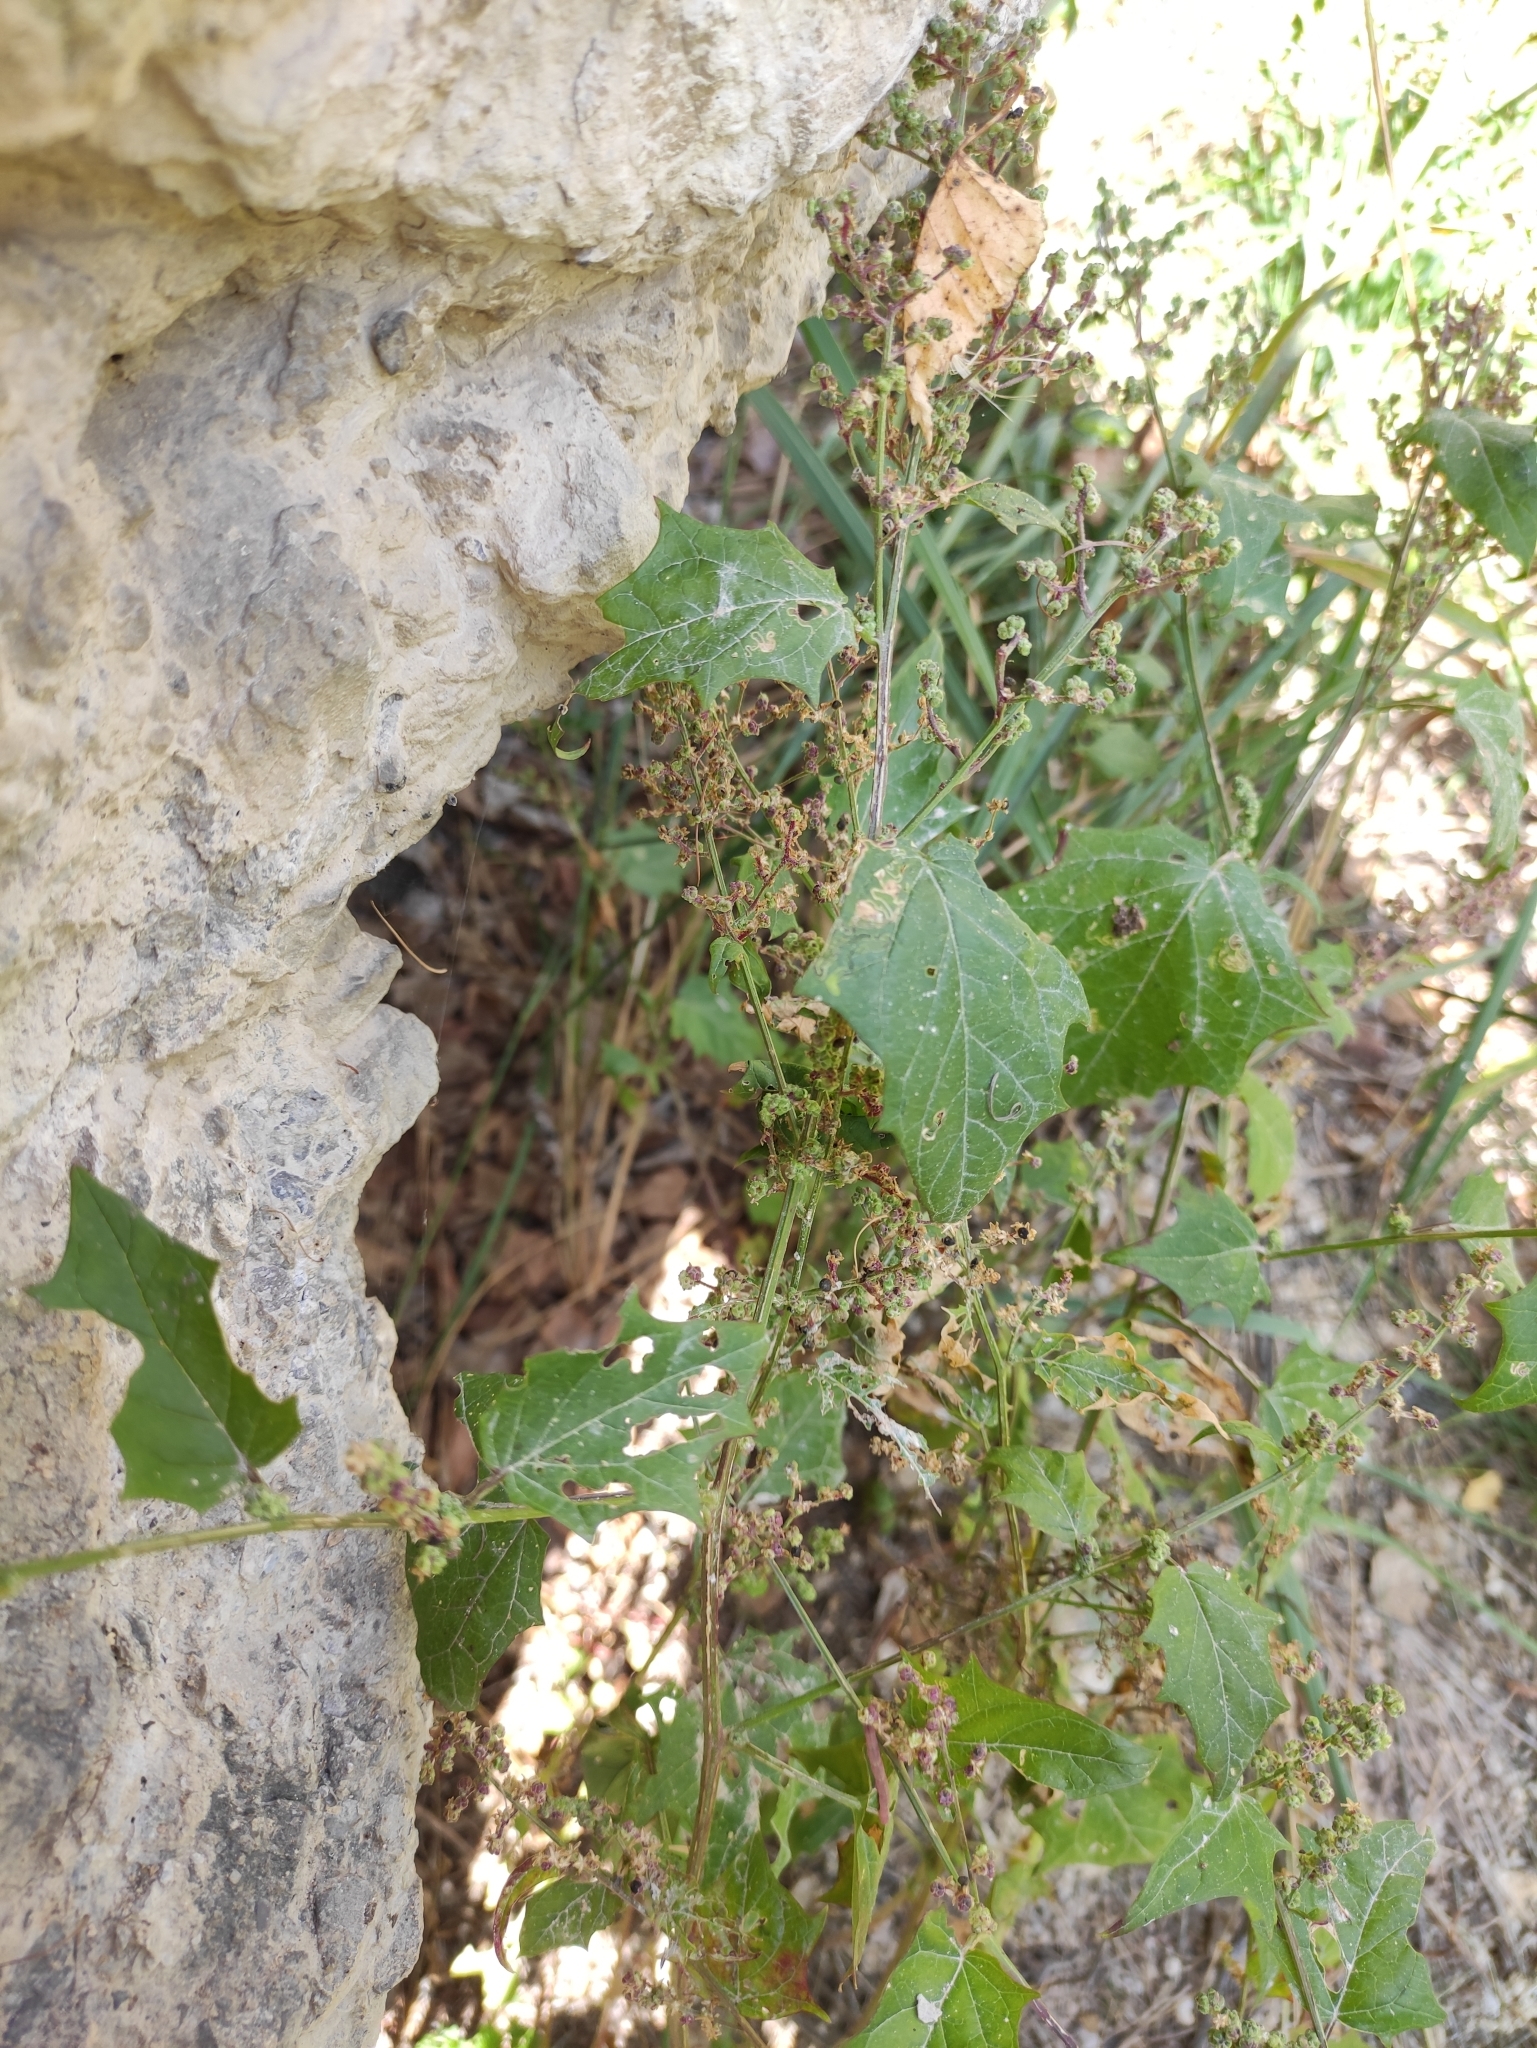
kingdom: Plantae
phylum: Tracheophyta
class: Magnoliopsida
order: Caryophyllales
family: Amaranthaceae
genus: Chenopodiastrum
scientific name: Chenopodiastrum hybridum
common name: Mapleleaf goosefoot
